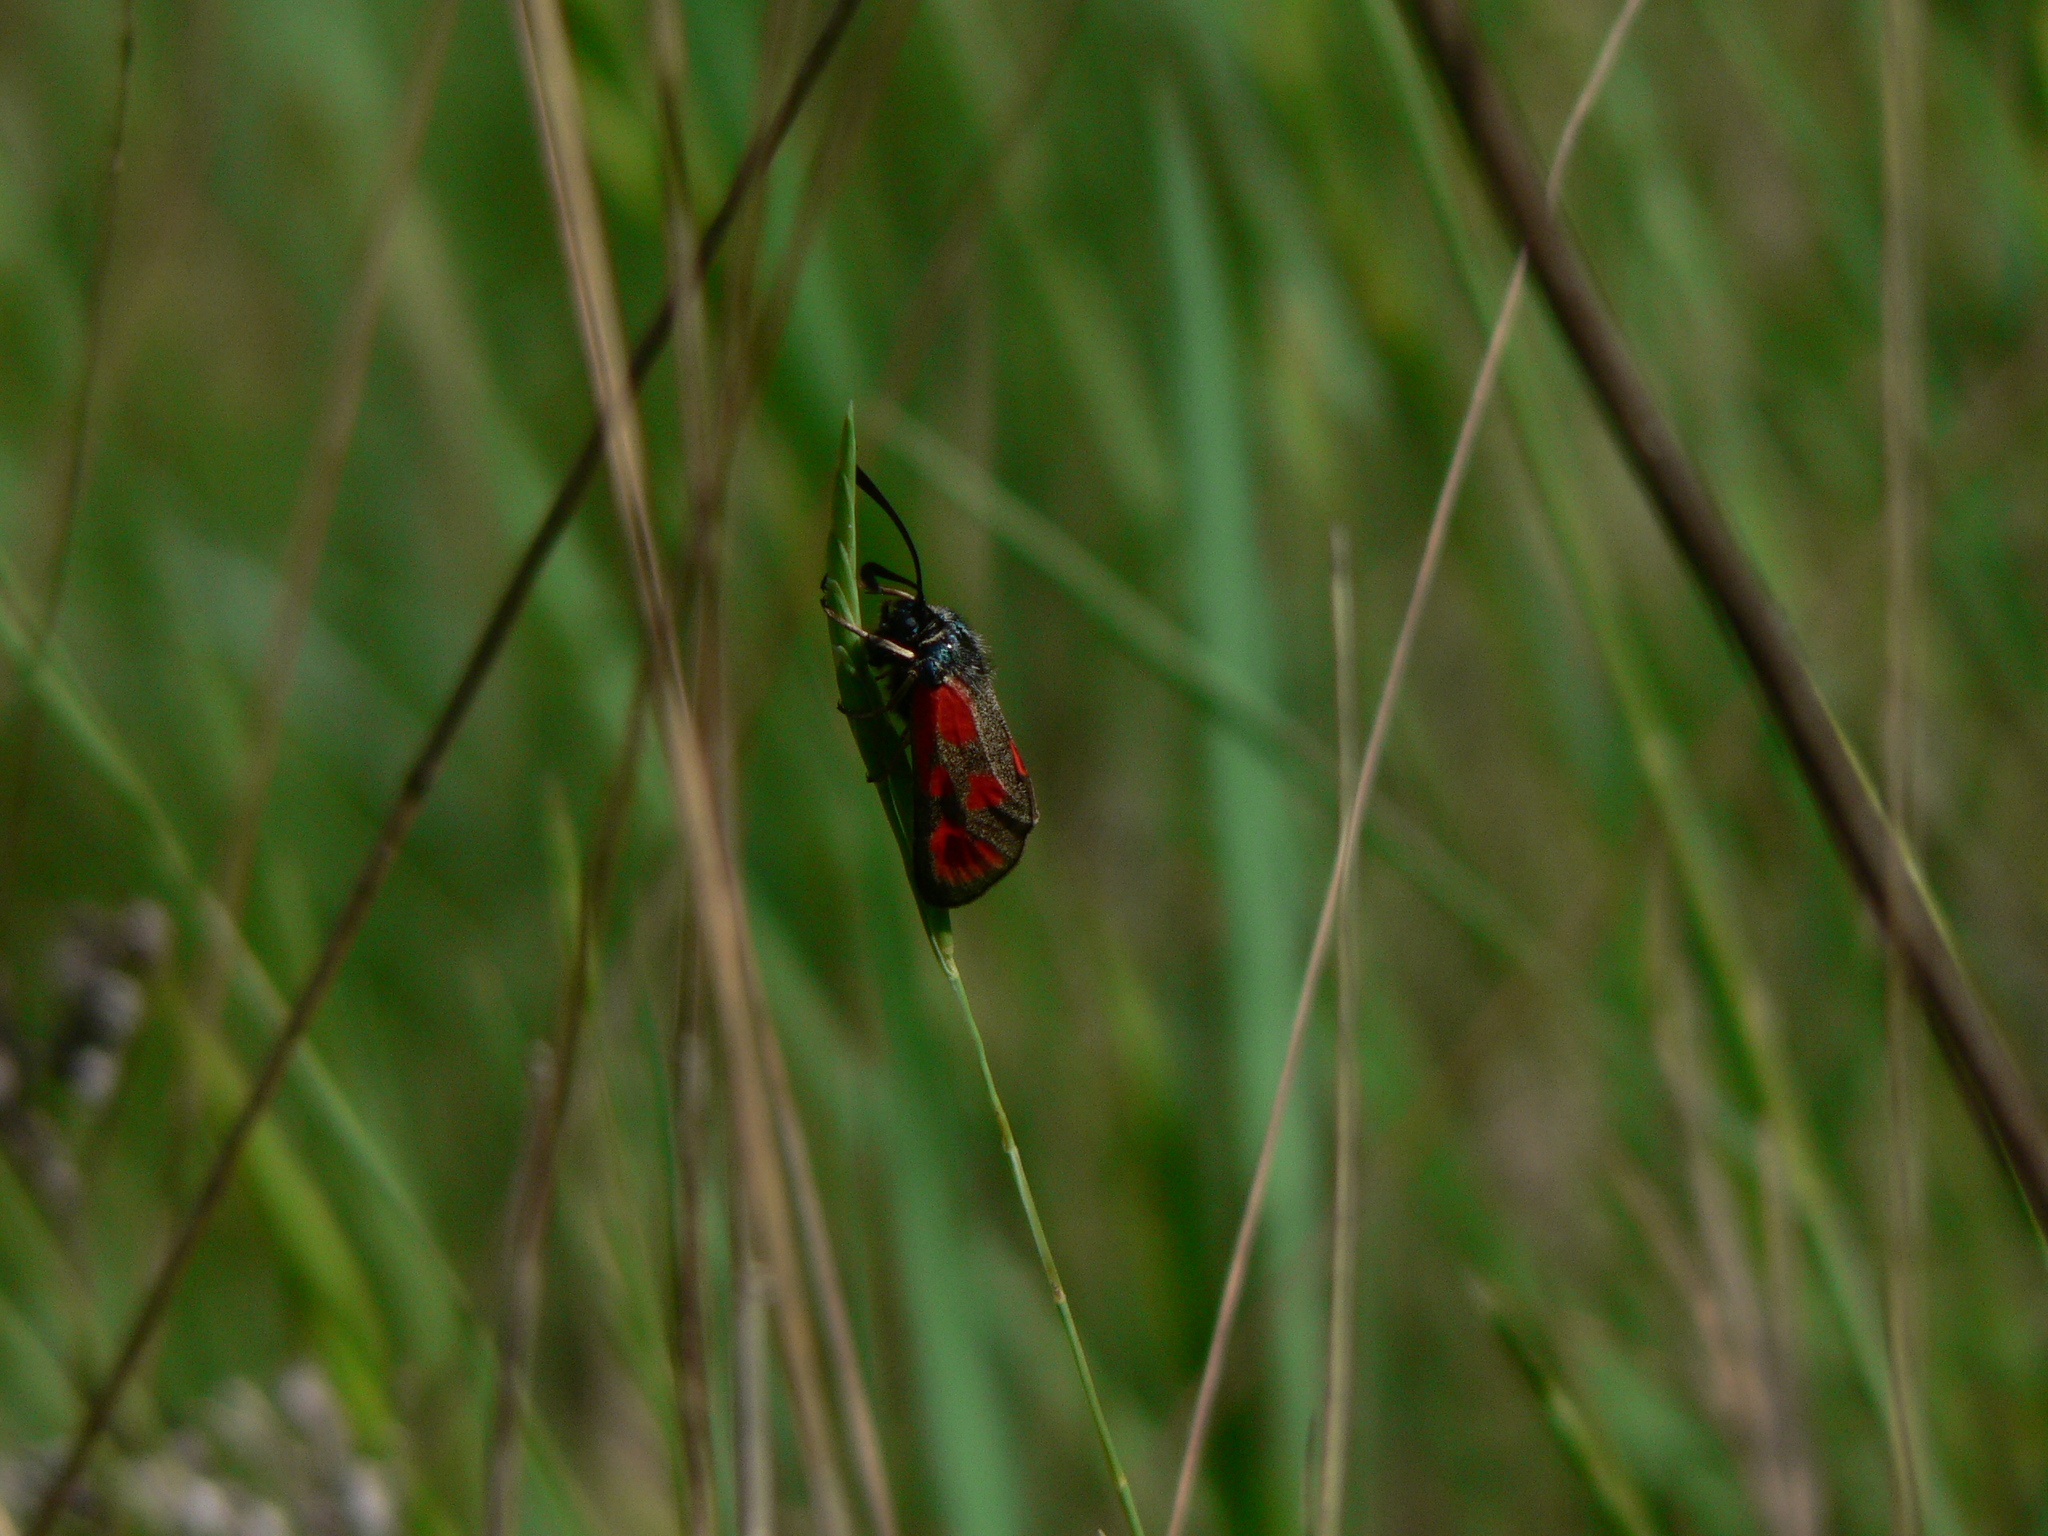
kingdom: Animalia
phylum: Arthropoda
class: Insecta
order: Lepidoptera
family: Zygaenidae
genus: Zygaena
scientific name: Zygaena loti
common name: Slender scotch burnet
